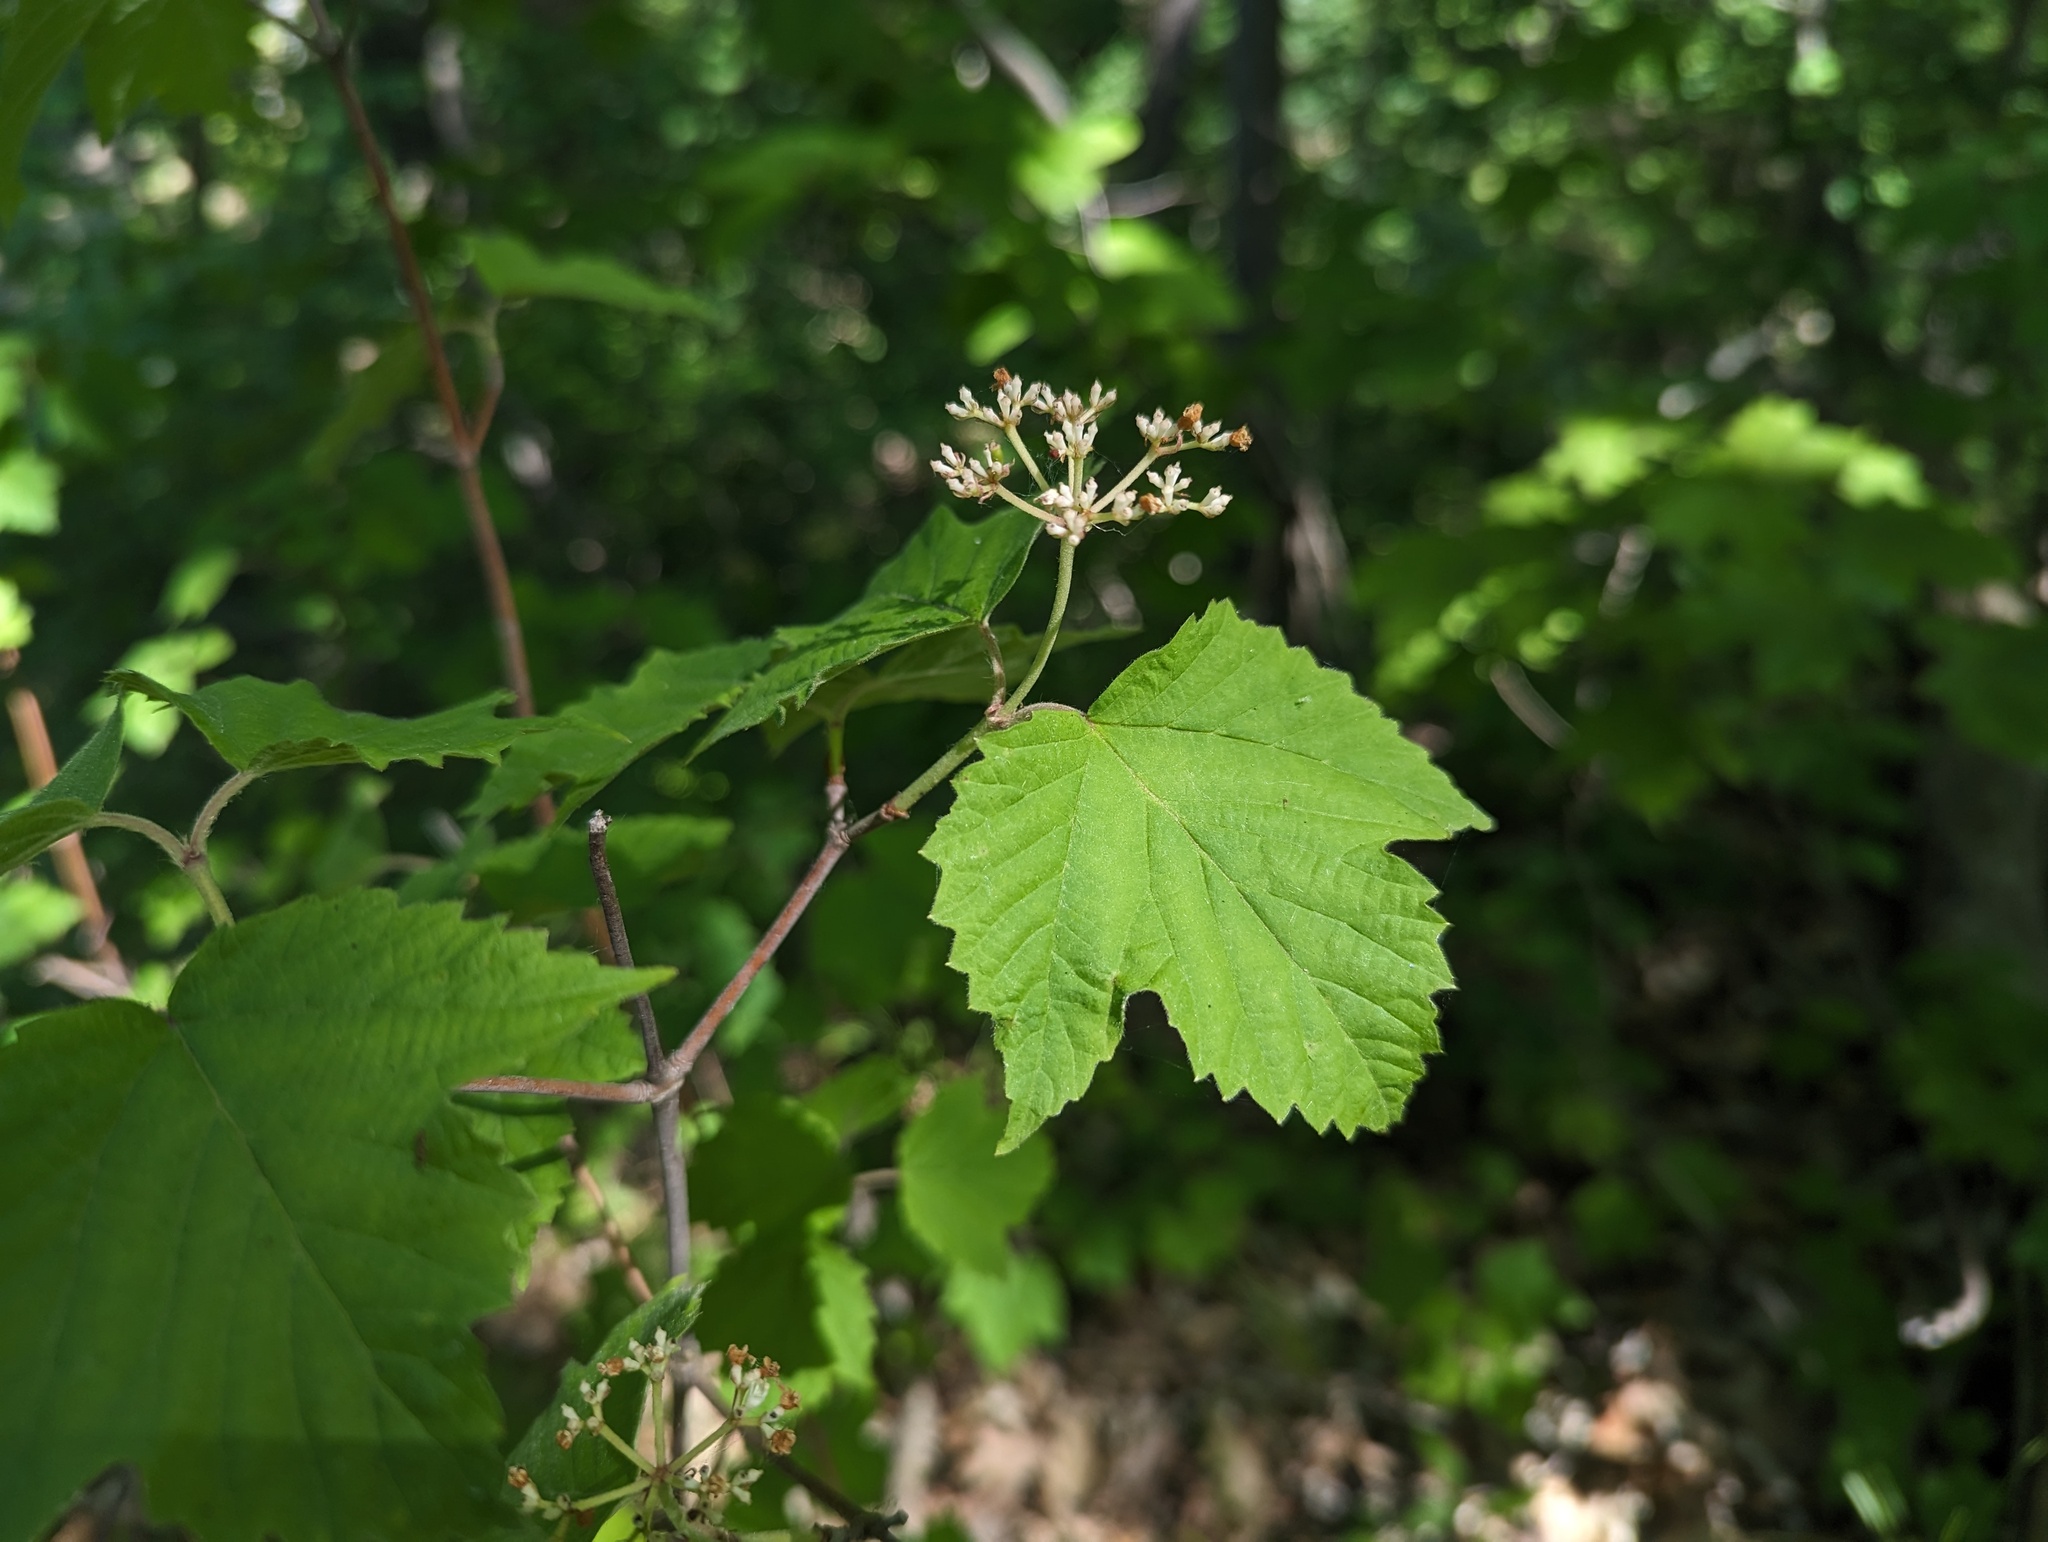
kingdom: Plantae
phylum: Tracheophyta
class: Magnoliopsida
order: Dipsacales
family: Viburnaceae
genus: Viburnum
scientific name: Viburnum acerifolium
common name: Dockmackie
